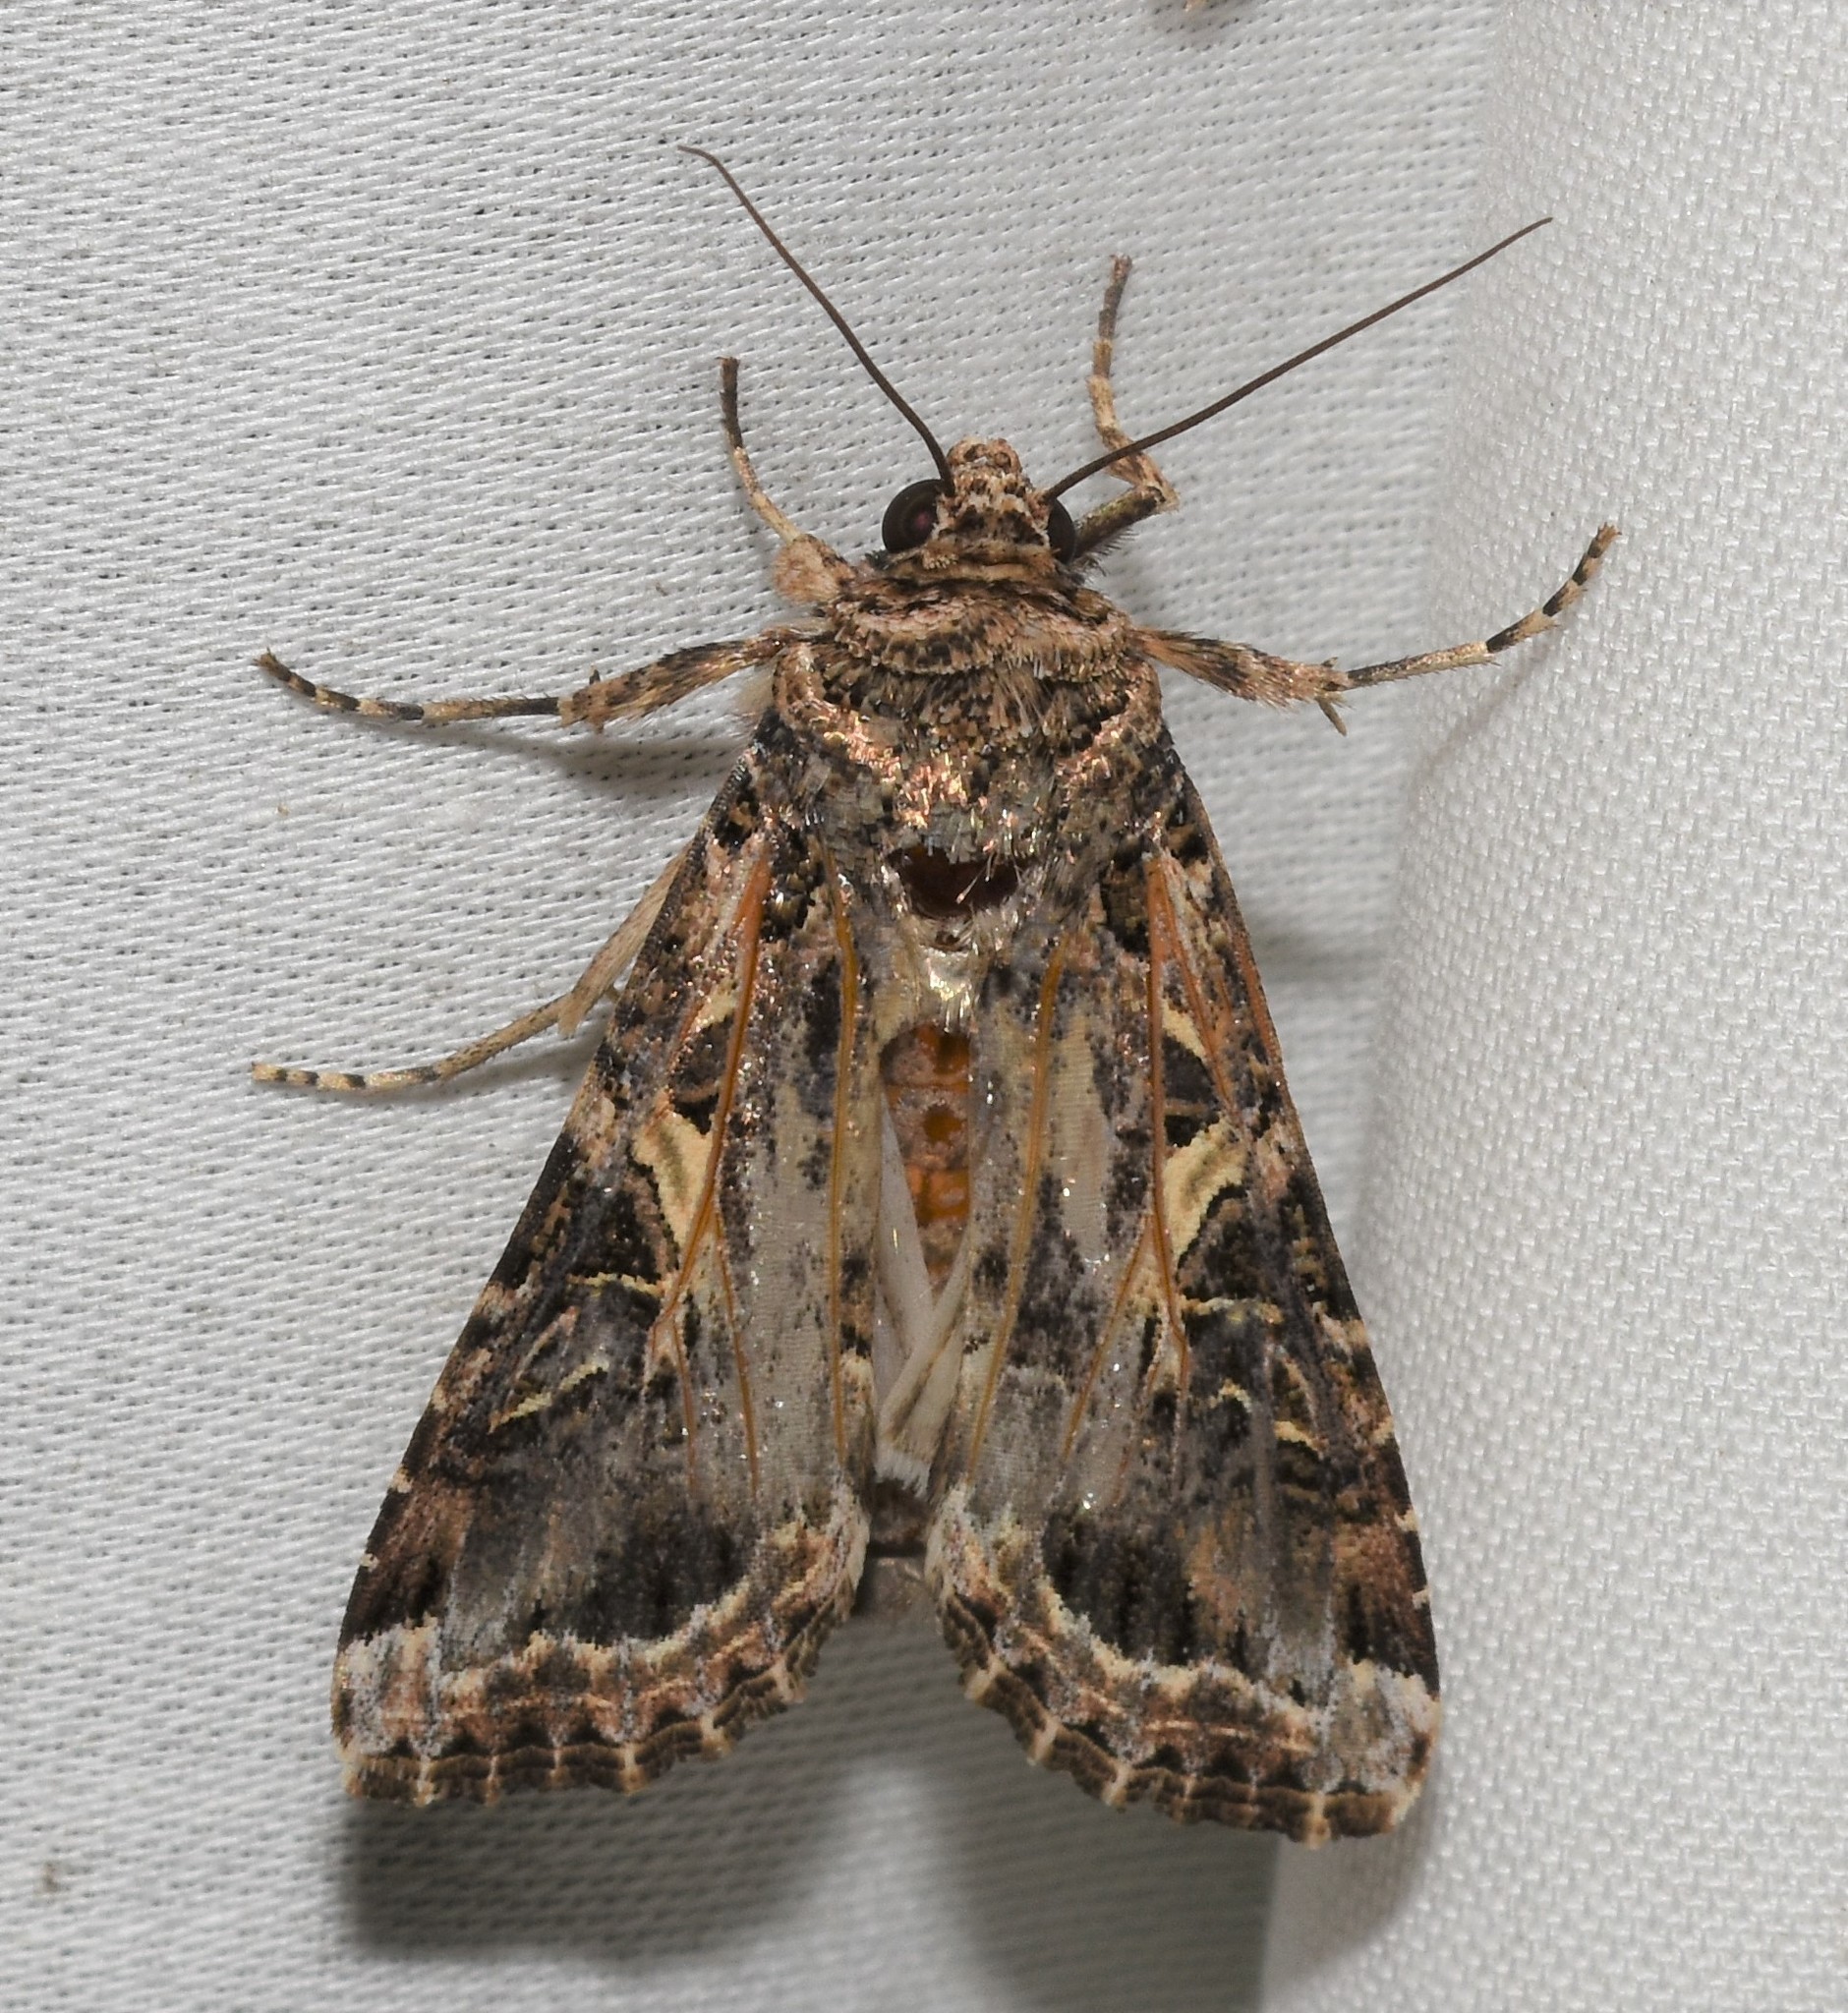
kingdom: Animalia
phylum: Arthropoda
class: Insecta
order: Lepidoptera
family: Noctuidae
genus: Spodoptera
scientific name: Spodoptera ornithogalli
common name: Yellow-striped armyworm
